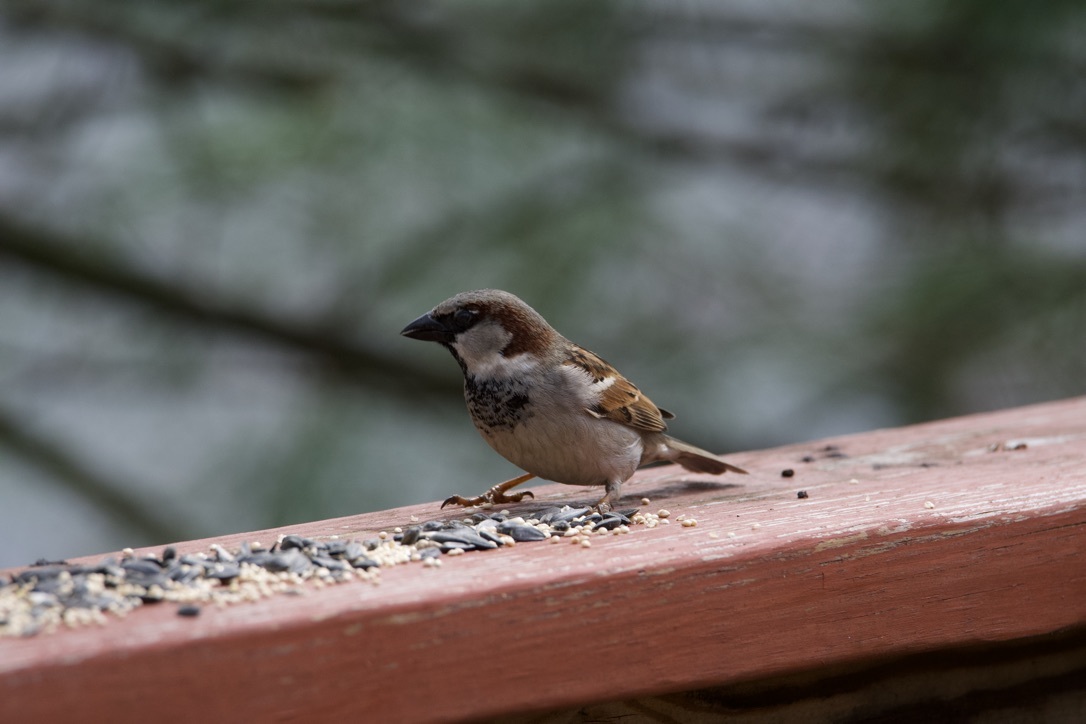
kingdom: Animalia
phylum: Chordata
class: Aves
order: Passeriformes
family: Passeridae
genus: Passer
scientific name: Passer domesticus
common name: House sparrow
